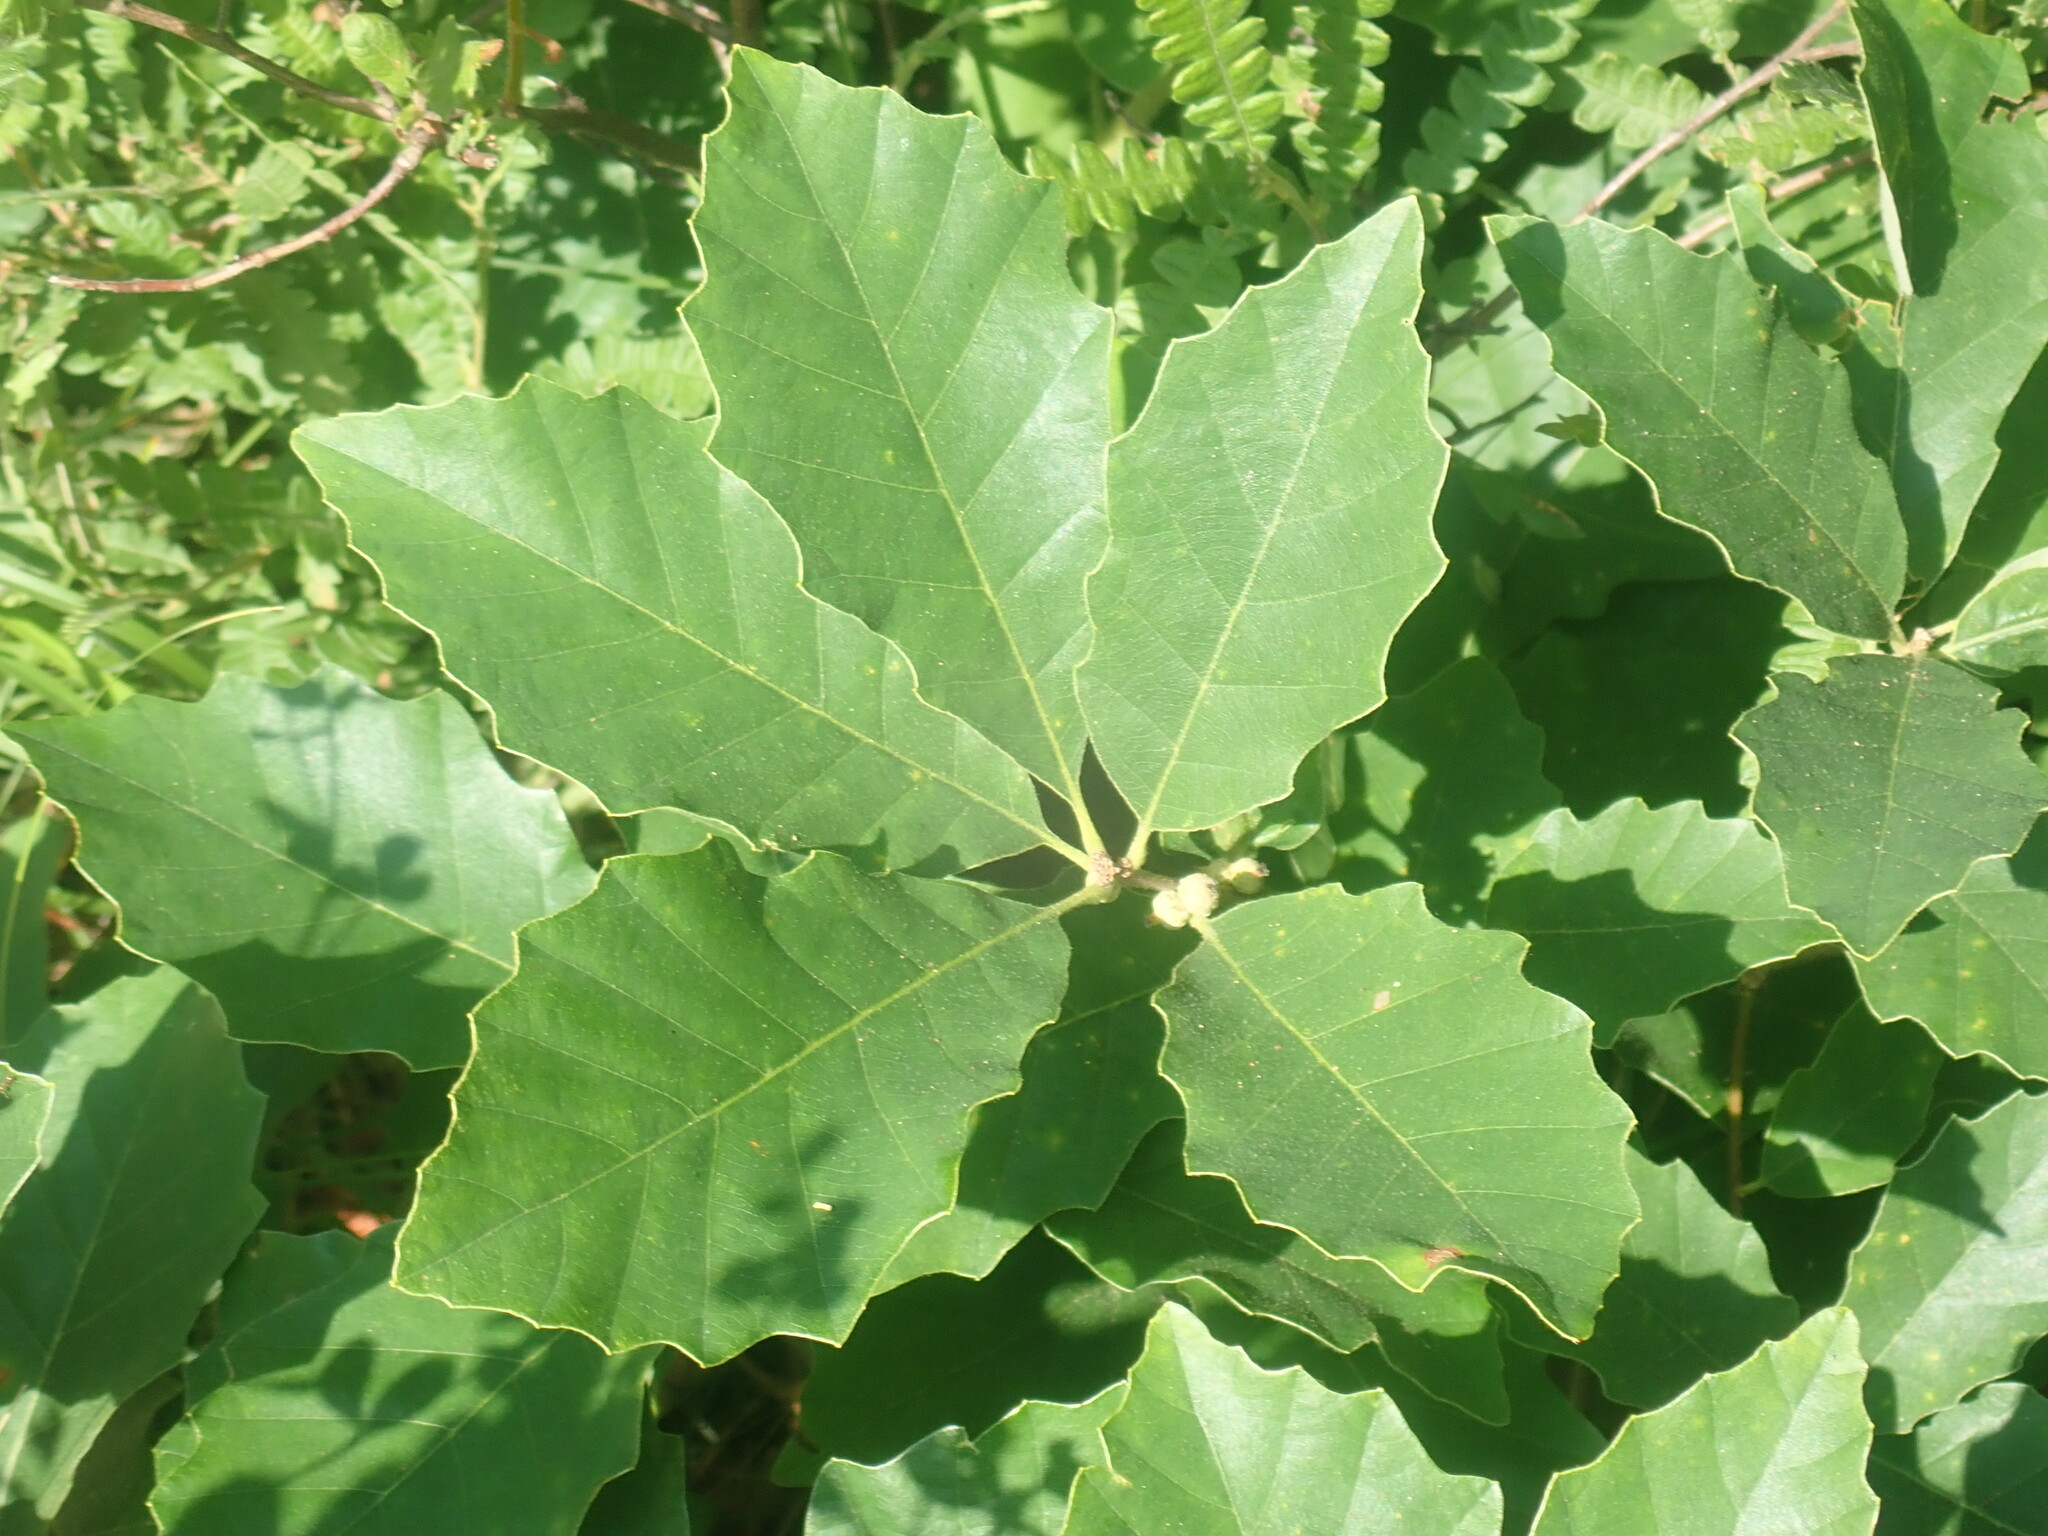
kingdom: Plantae
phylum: Tracheophyta
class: Magnoliopsida
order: Fagales
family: Fagaceae
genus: Quercus
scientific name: Quercus prinoides
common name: Dwarf chinkapin oak
